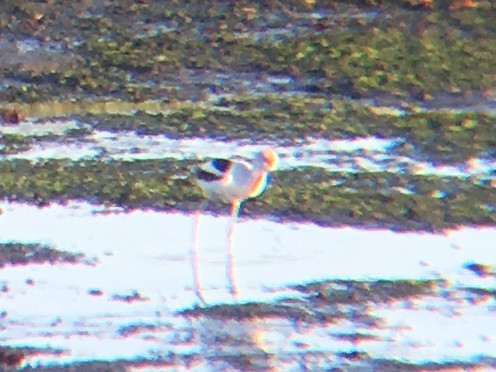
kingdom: Animalia
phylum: Chordata
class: Aves
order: Charadriiformes
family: Recurvirostridae
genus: Recurvirostra
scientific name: Recurvirostra americana
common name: American avocet
